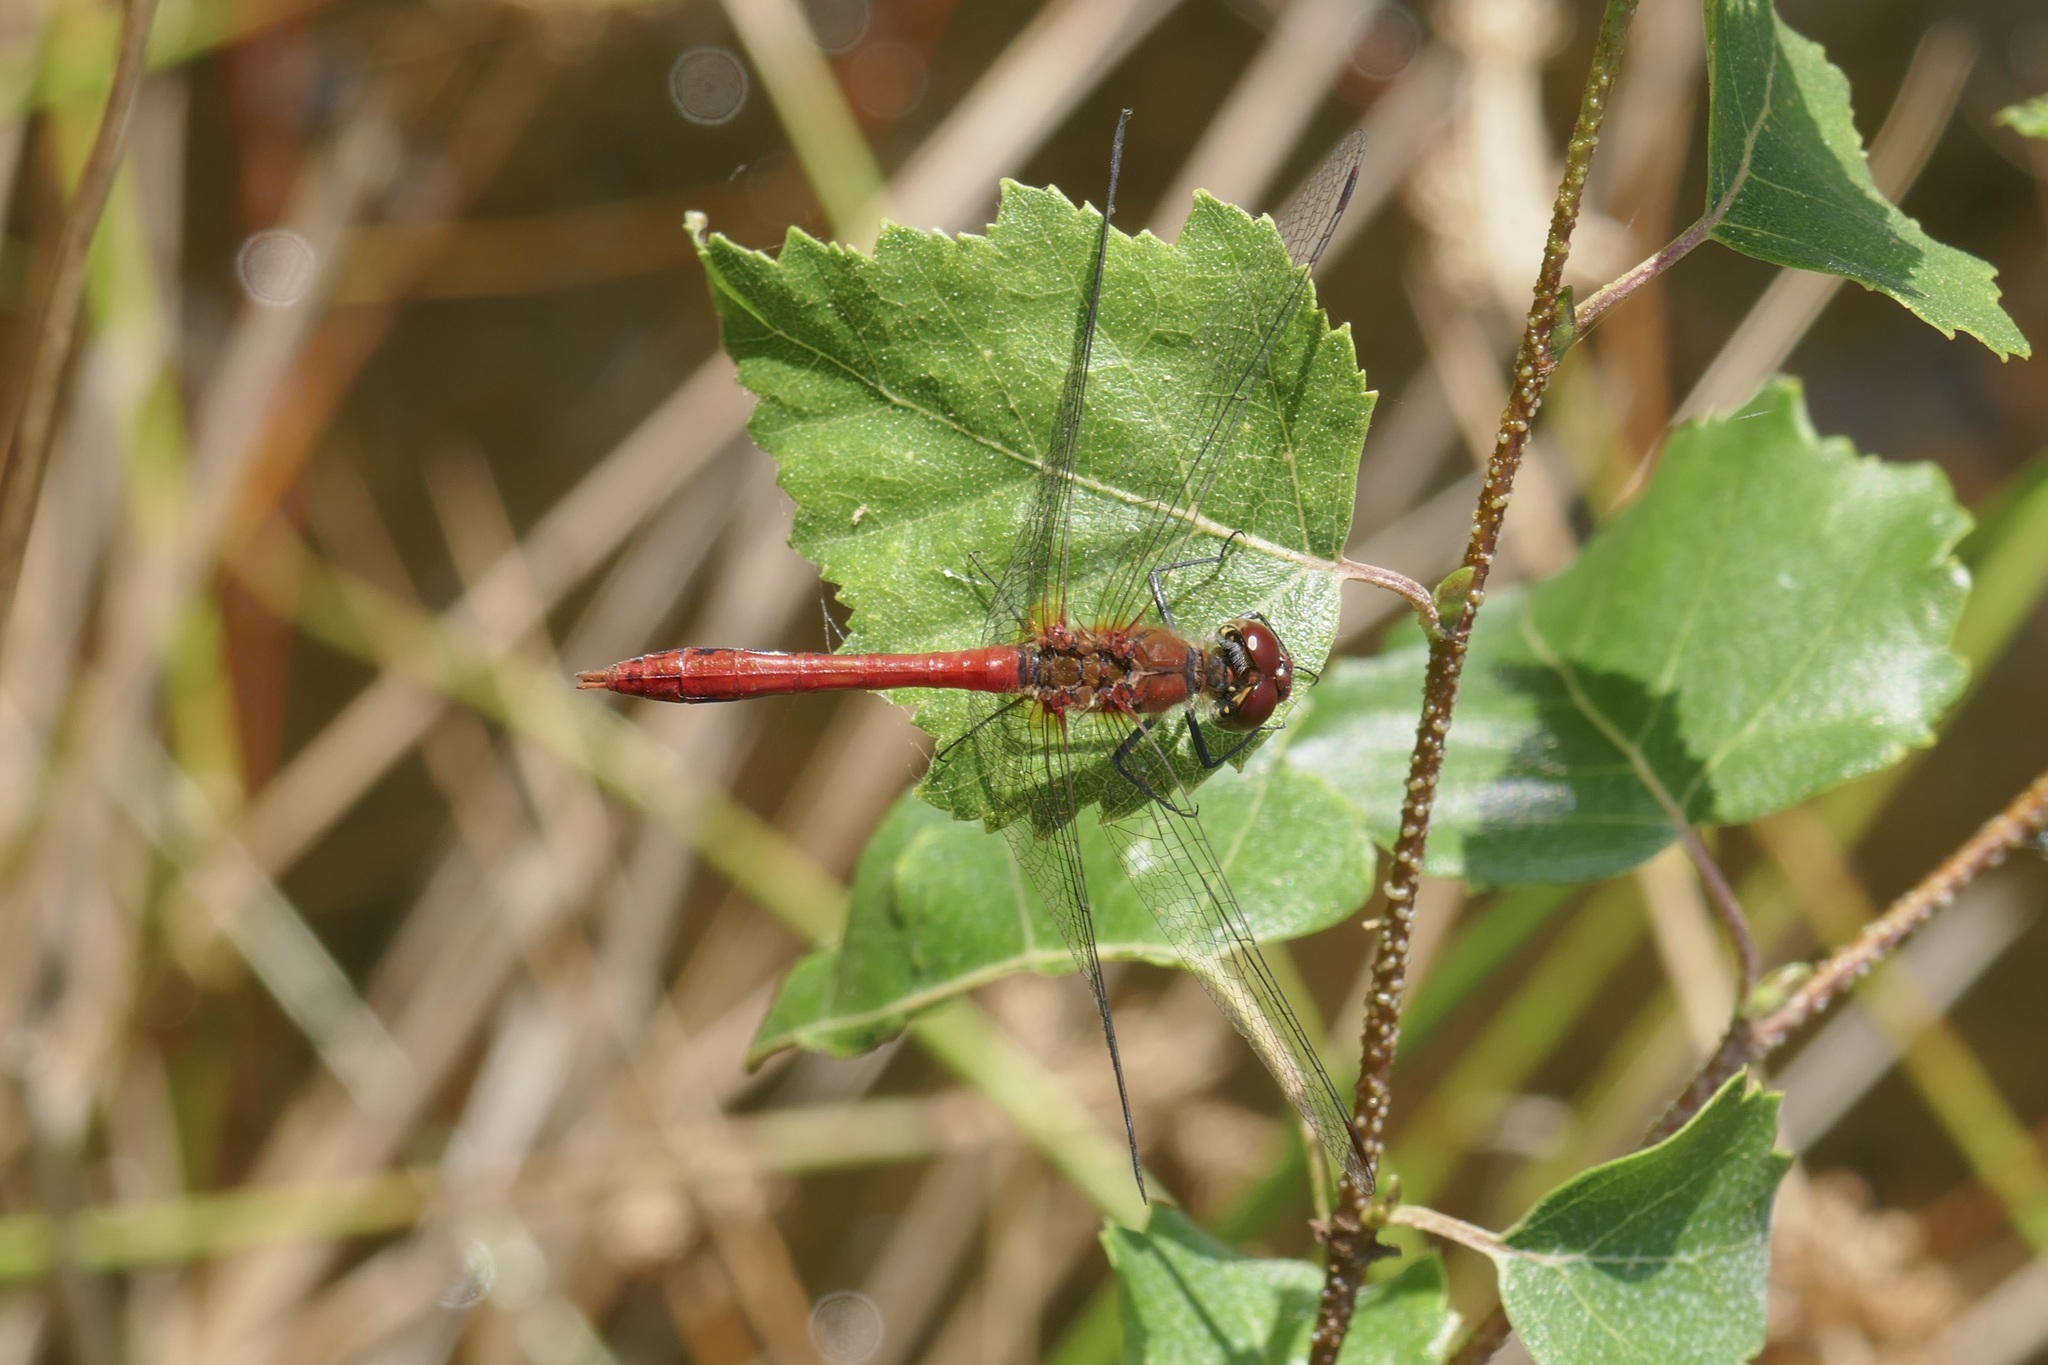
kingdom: Animalia
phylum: Arthropoda
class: Insecta
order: Odonata
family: Libellulidae
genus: Sympetrum
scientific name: Sympetrum sanguineum
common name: Ruddy darter
